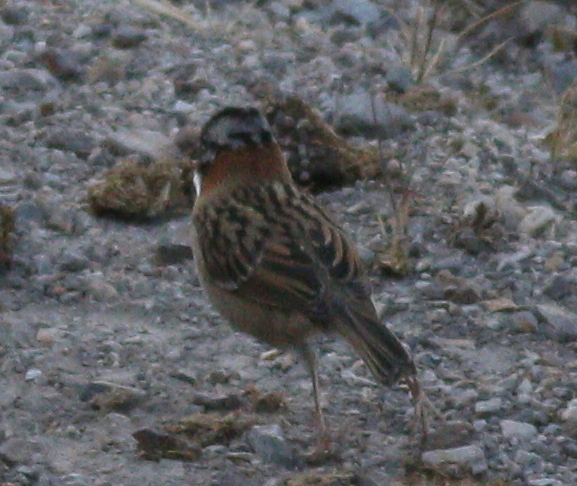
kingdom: Animalia
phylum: Chordata
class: Aves
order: Passeriformes
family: Passerellidae
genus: Zonotrichia
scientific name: Zonotrichia capensis
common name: Rufous-collared sparrow
